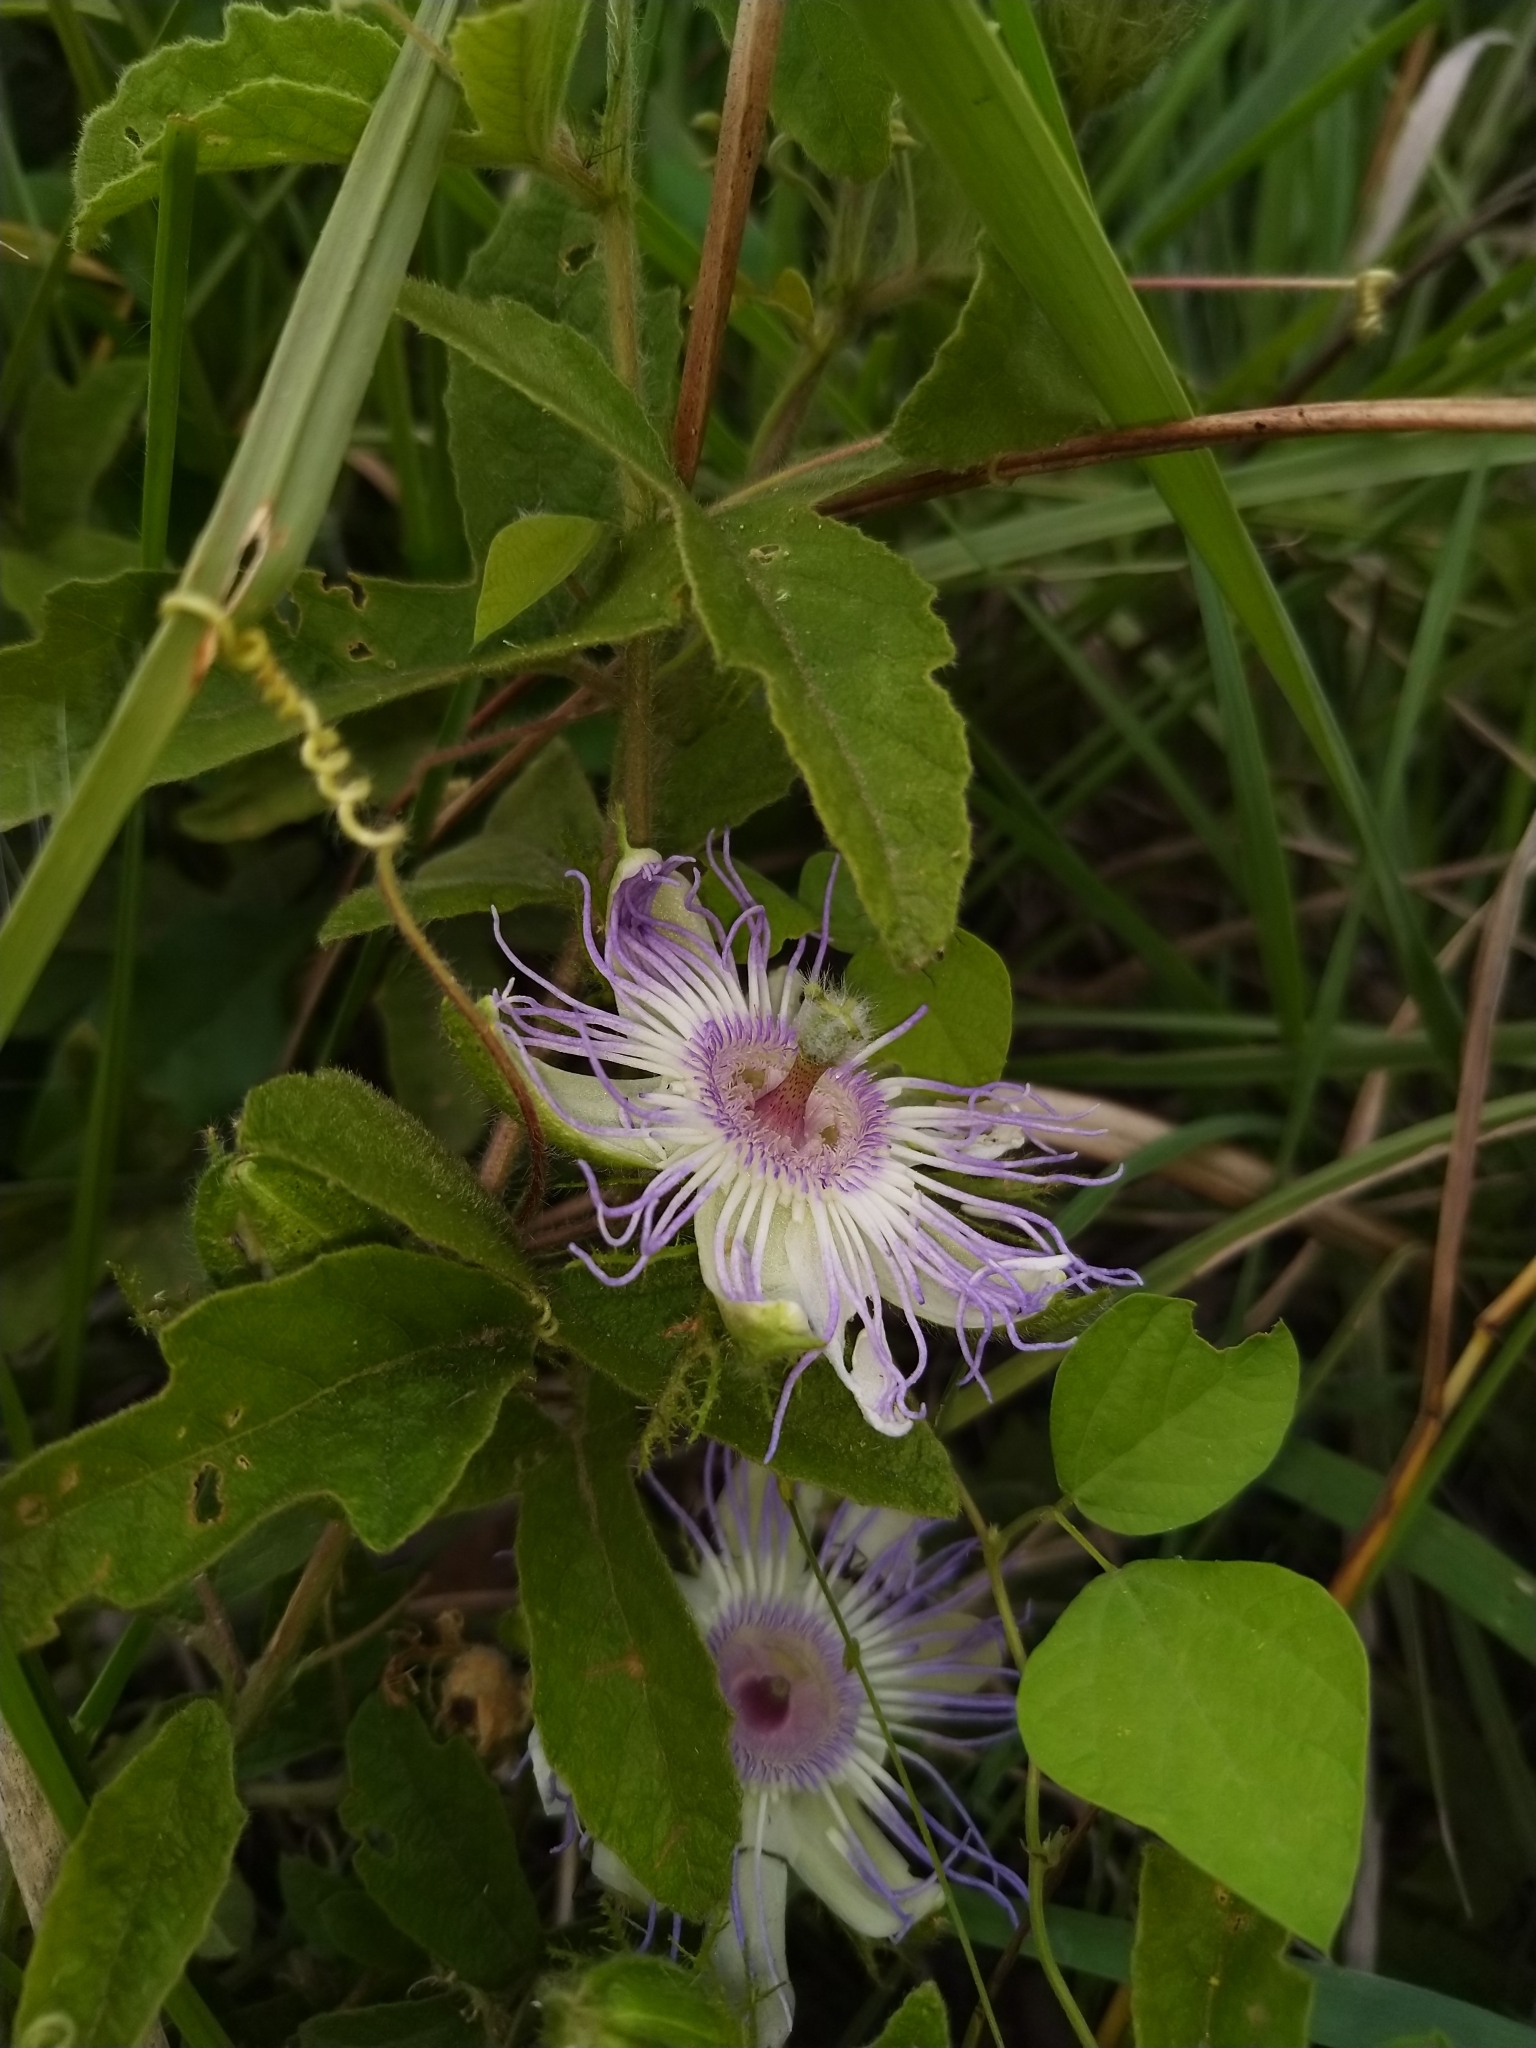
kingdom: Plantae
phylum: Tracheophyta
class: Magnoliopsida
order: Malpighiales
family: Passifloraceae
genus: Passiflora
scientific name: Passiflora chrysophylla
